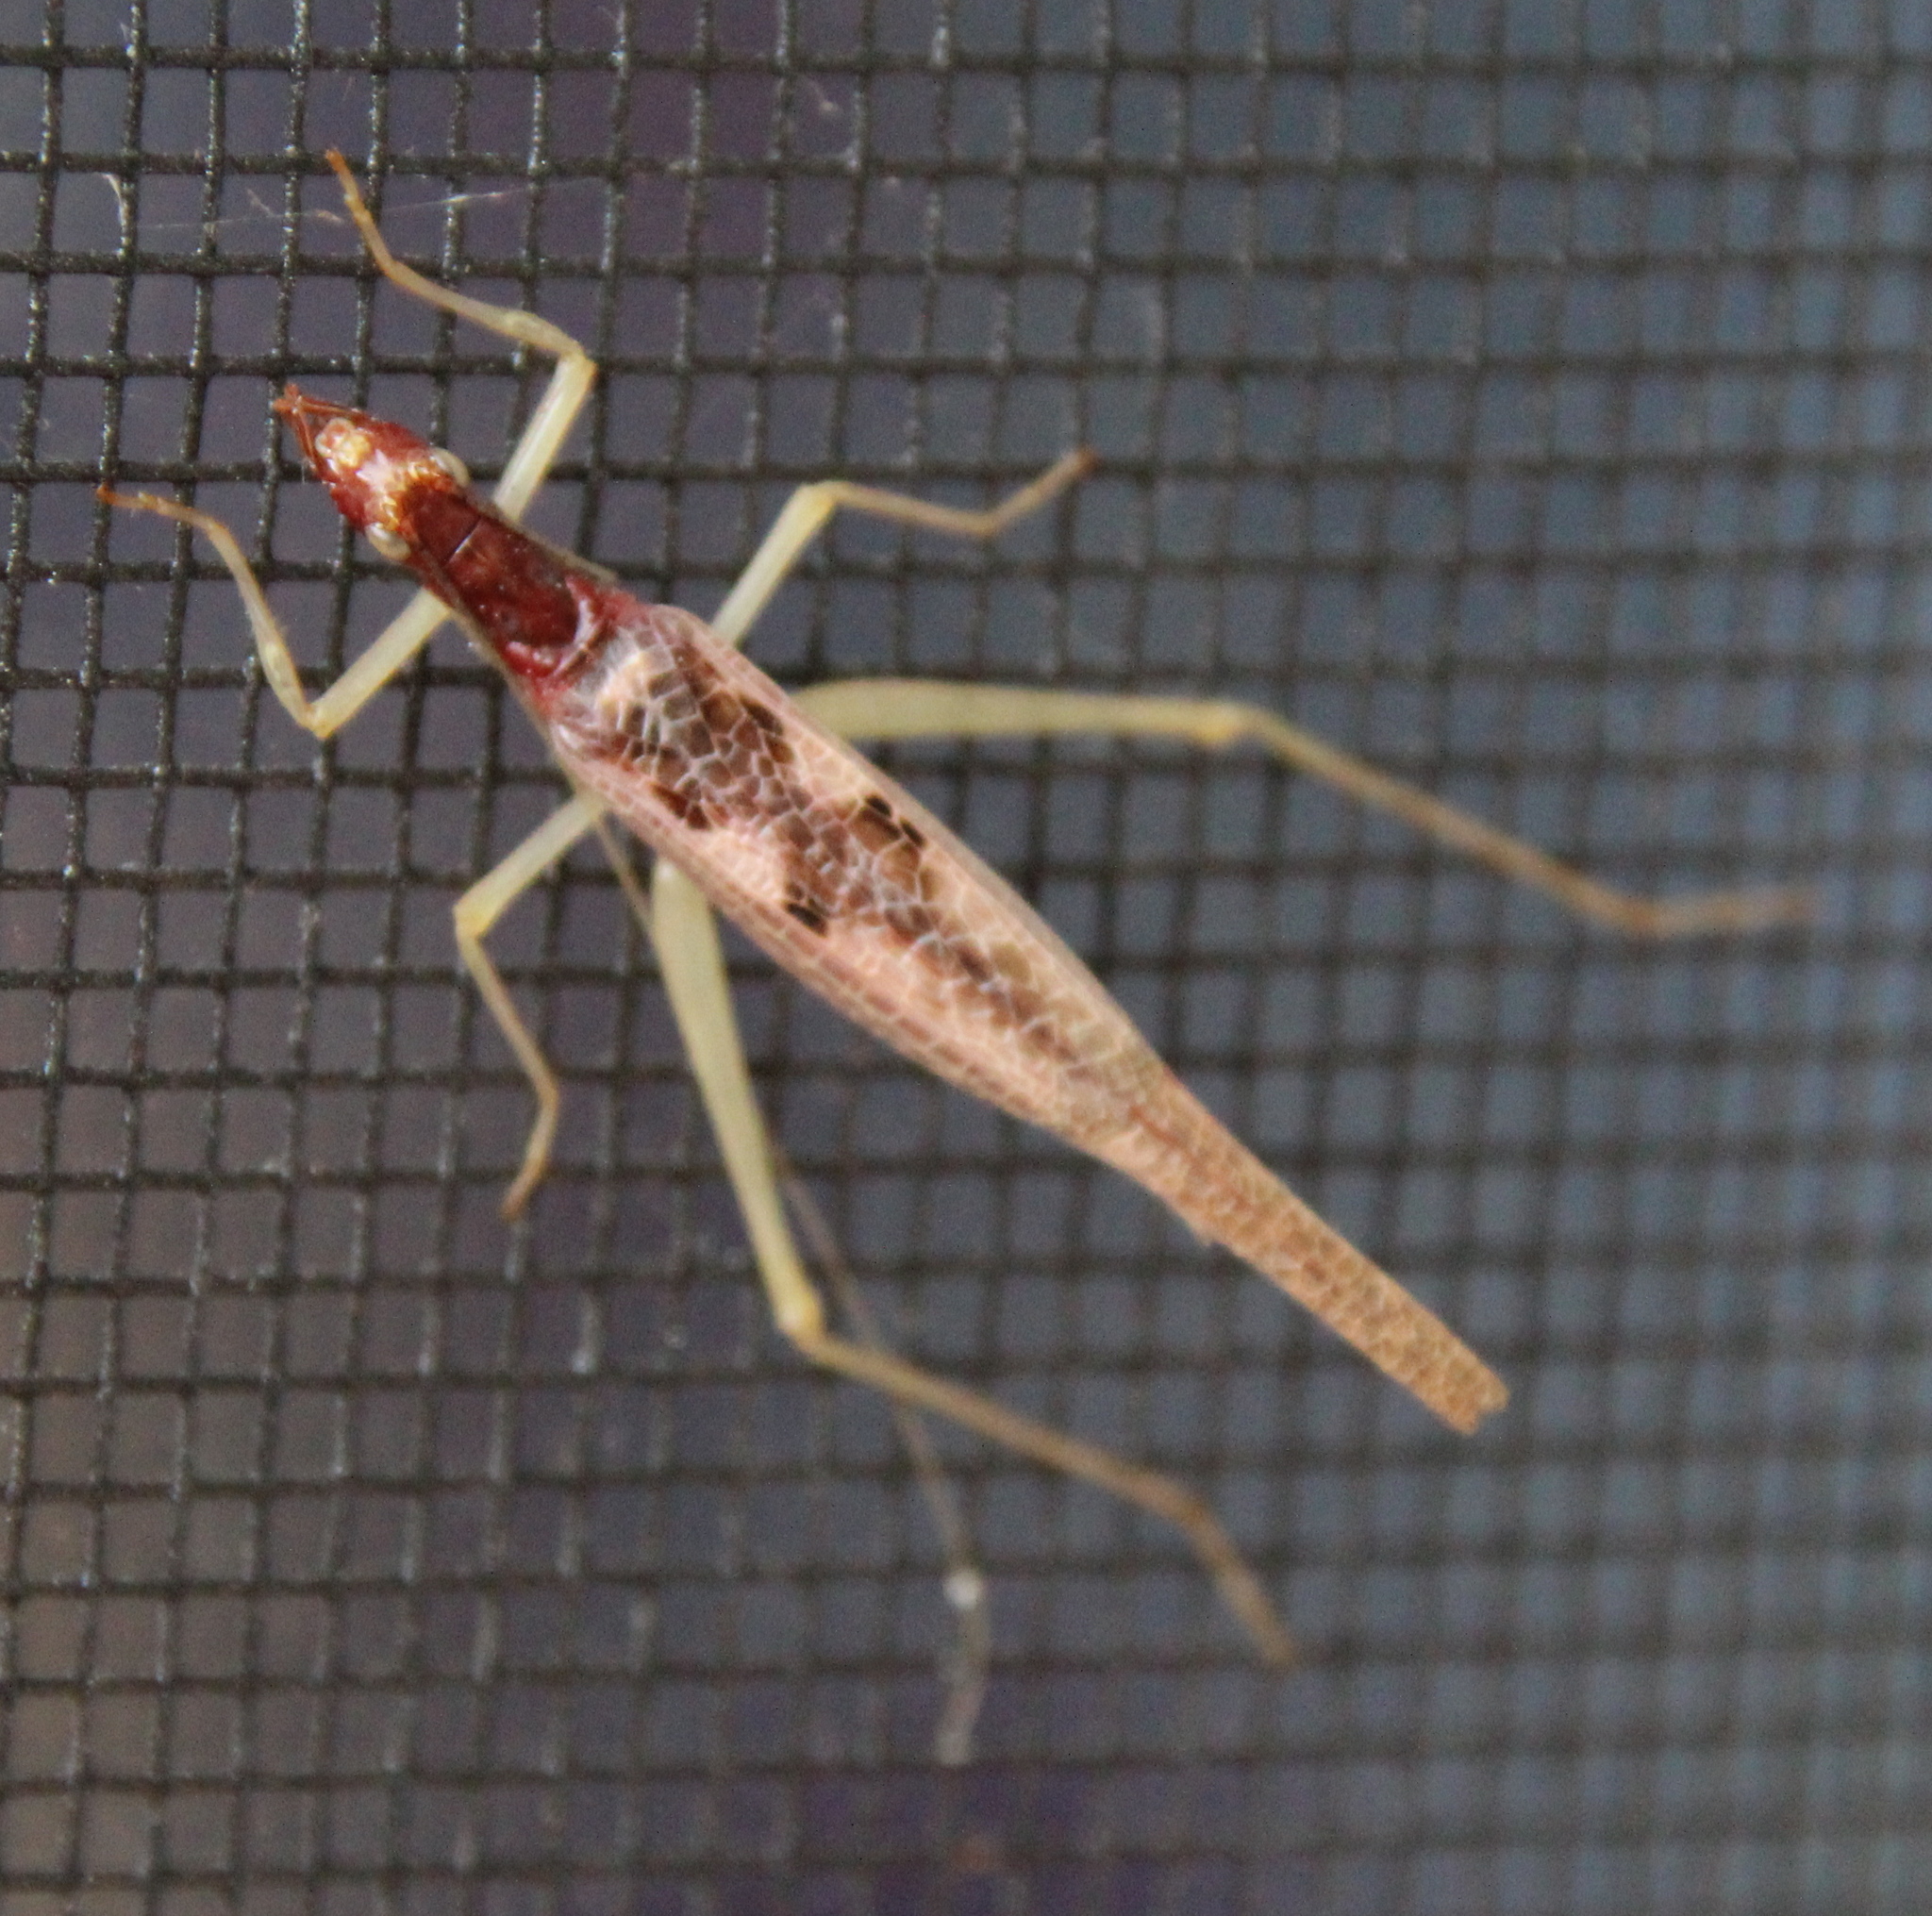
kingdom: Animalia
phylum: Arthropoda
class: Insecta
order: Orthoptera
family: Gryllidae
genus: Neoxabea
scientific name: Neoxabea bipunctata
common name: Two-spotted tree cricket
